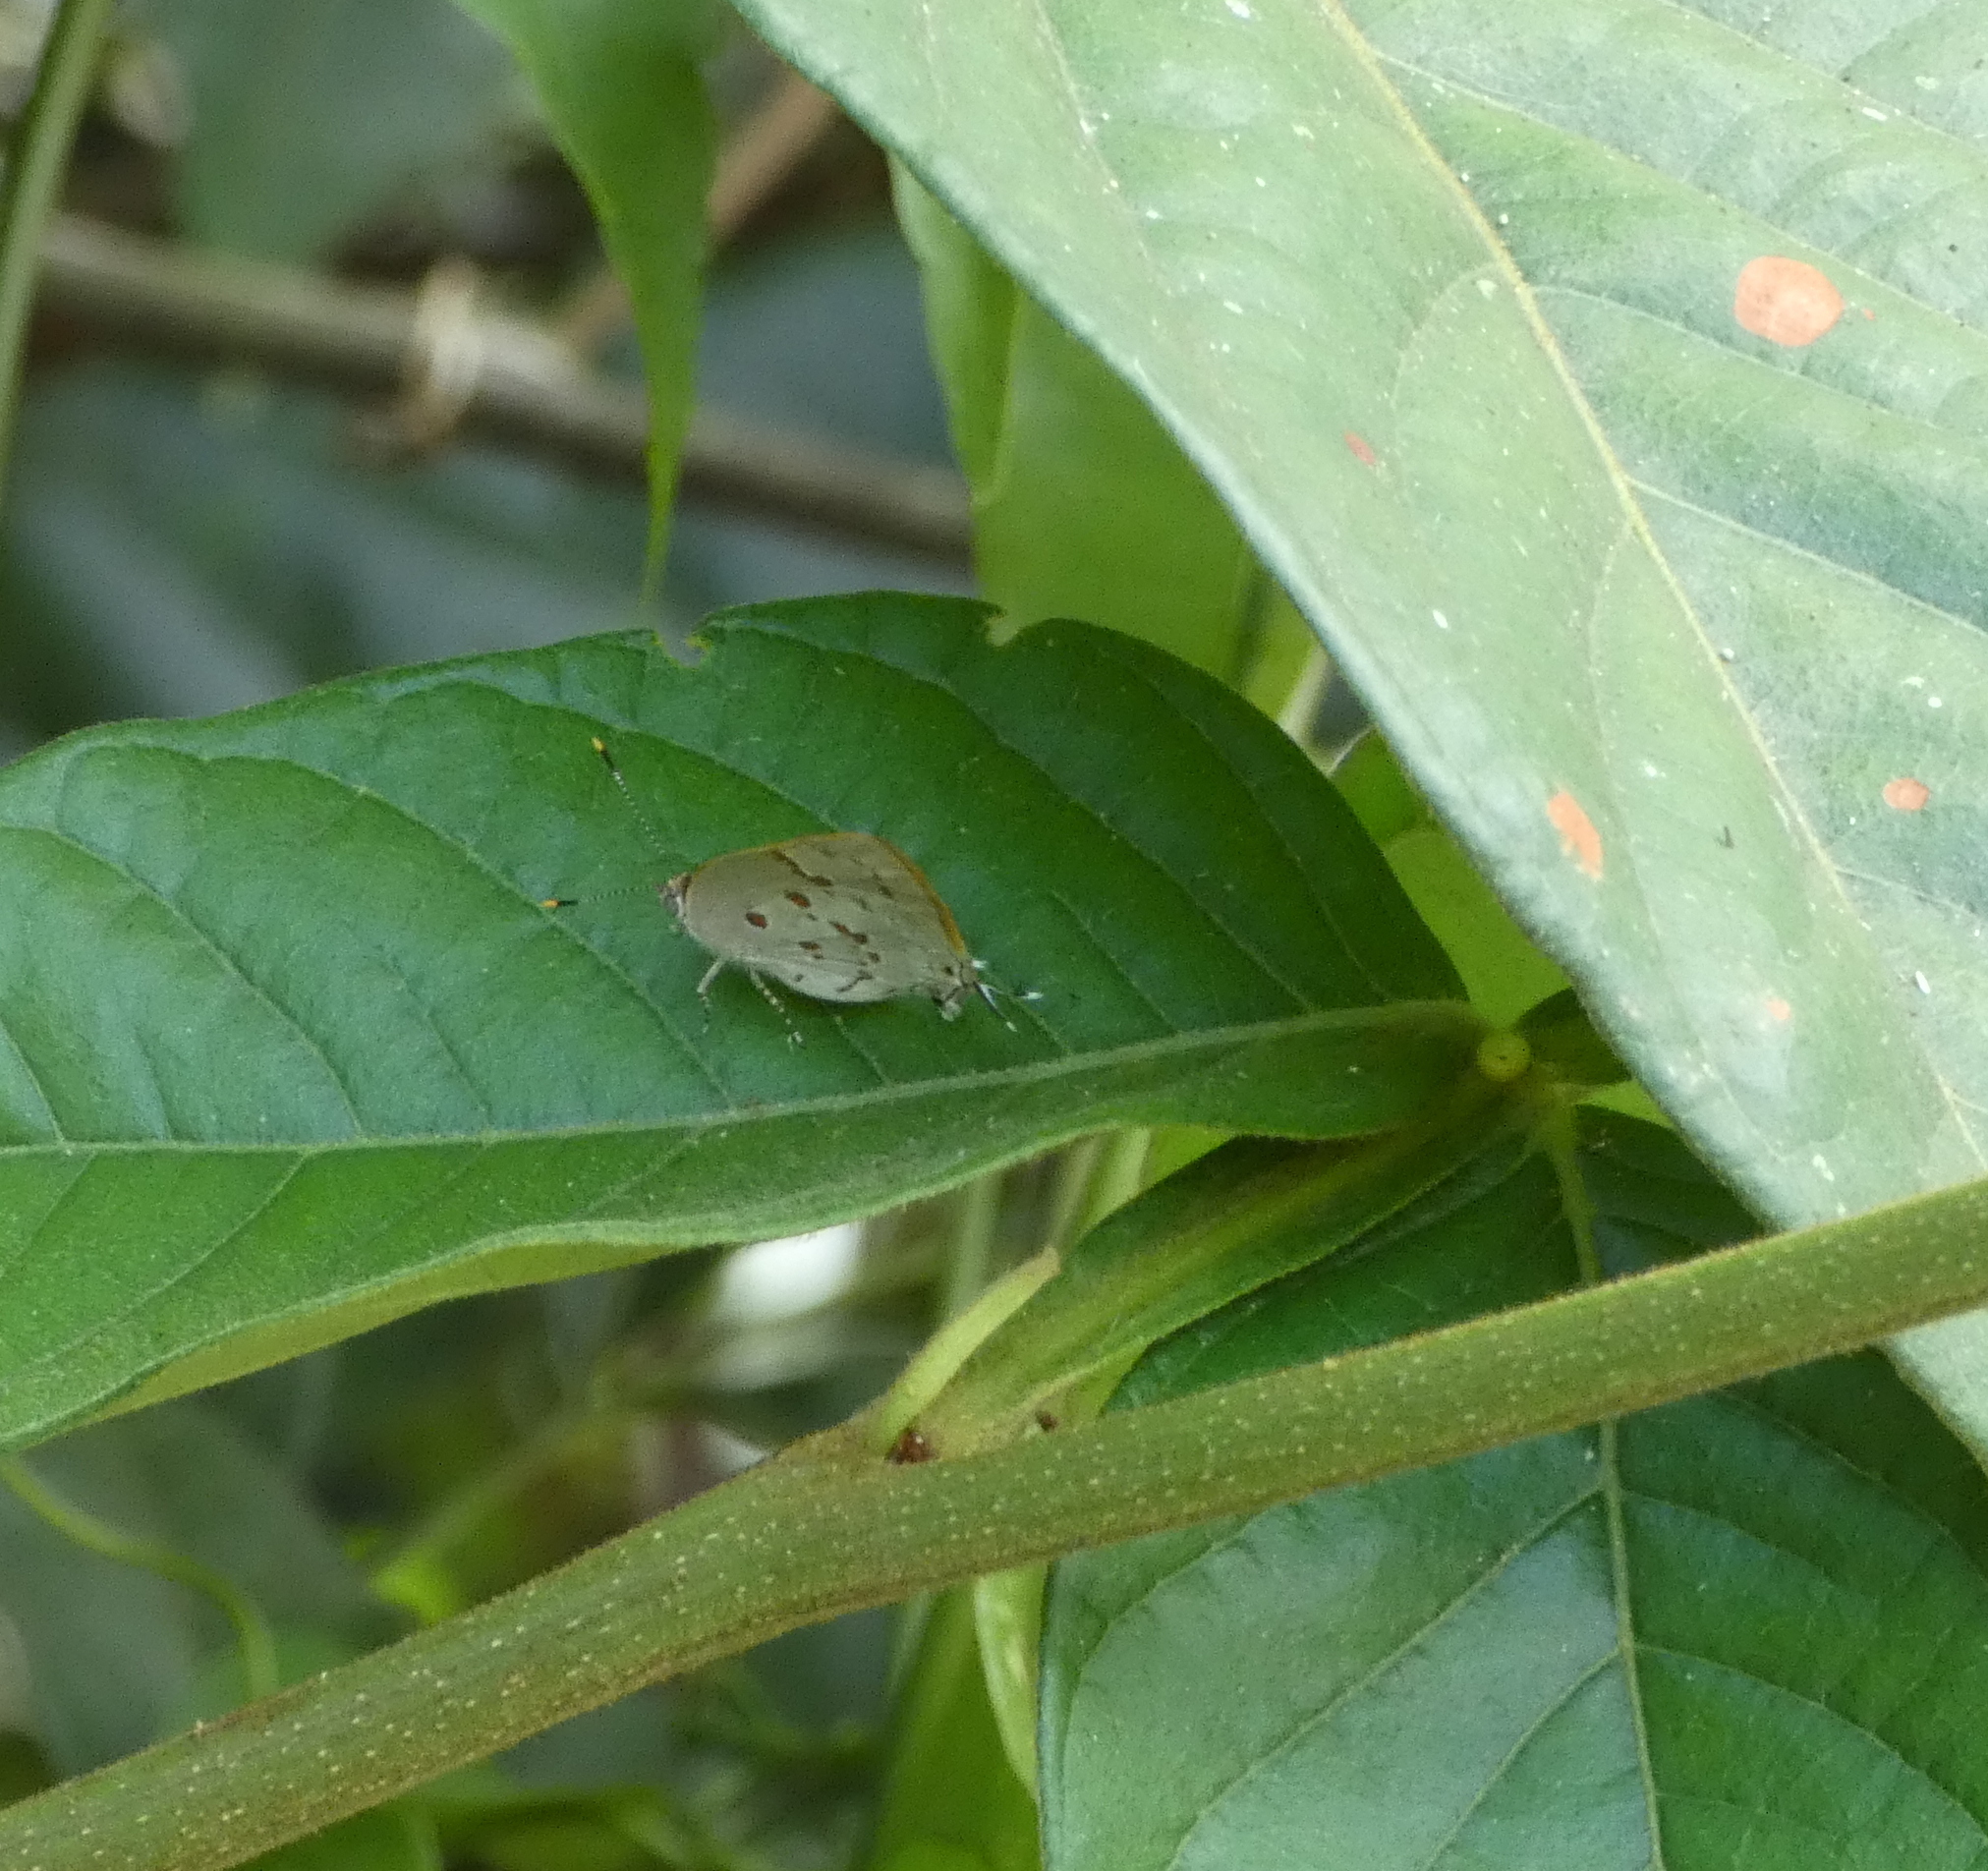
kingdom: Animalia
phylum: Arthropoda
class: Insecta
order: Lepidoptera
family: Lycaenidae
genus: Tmolus
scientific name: Tmolus echion
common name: Red-spotted hairstreak
